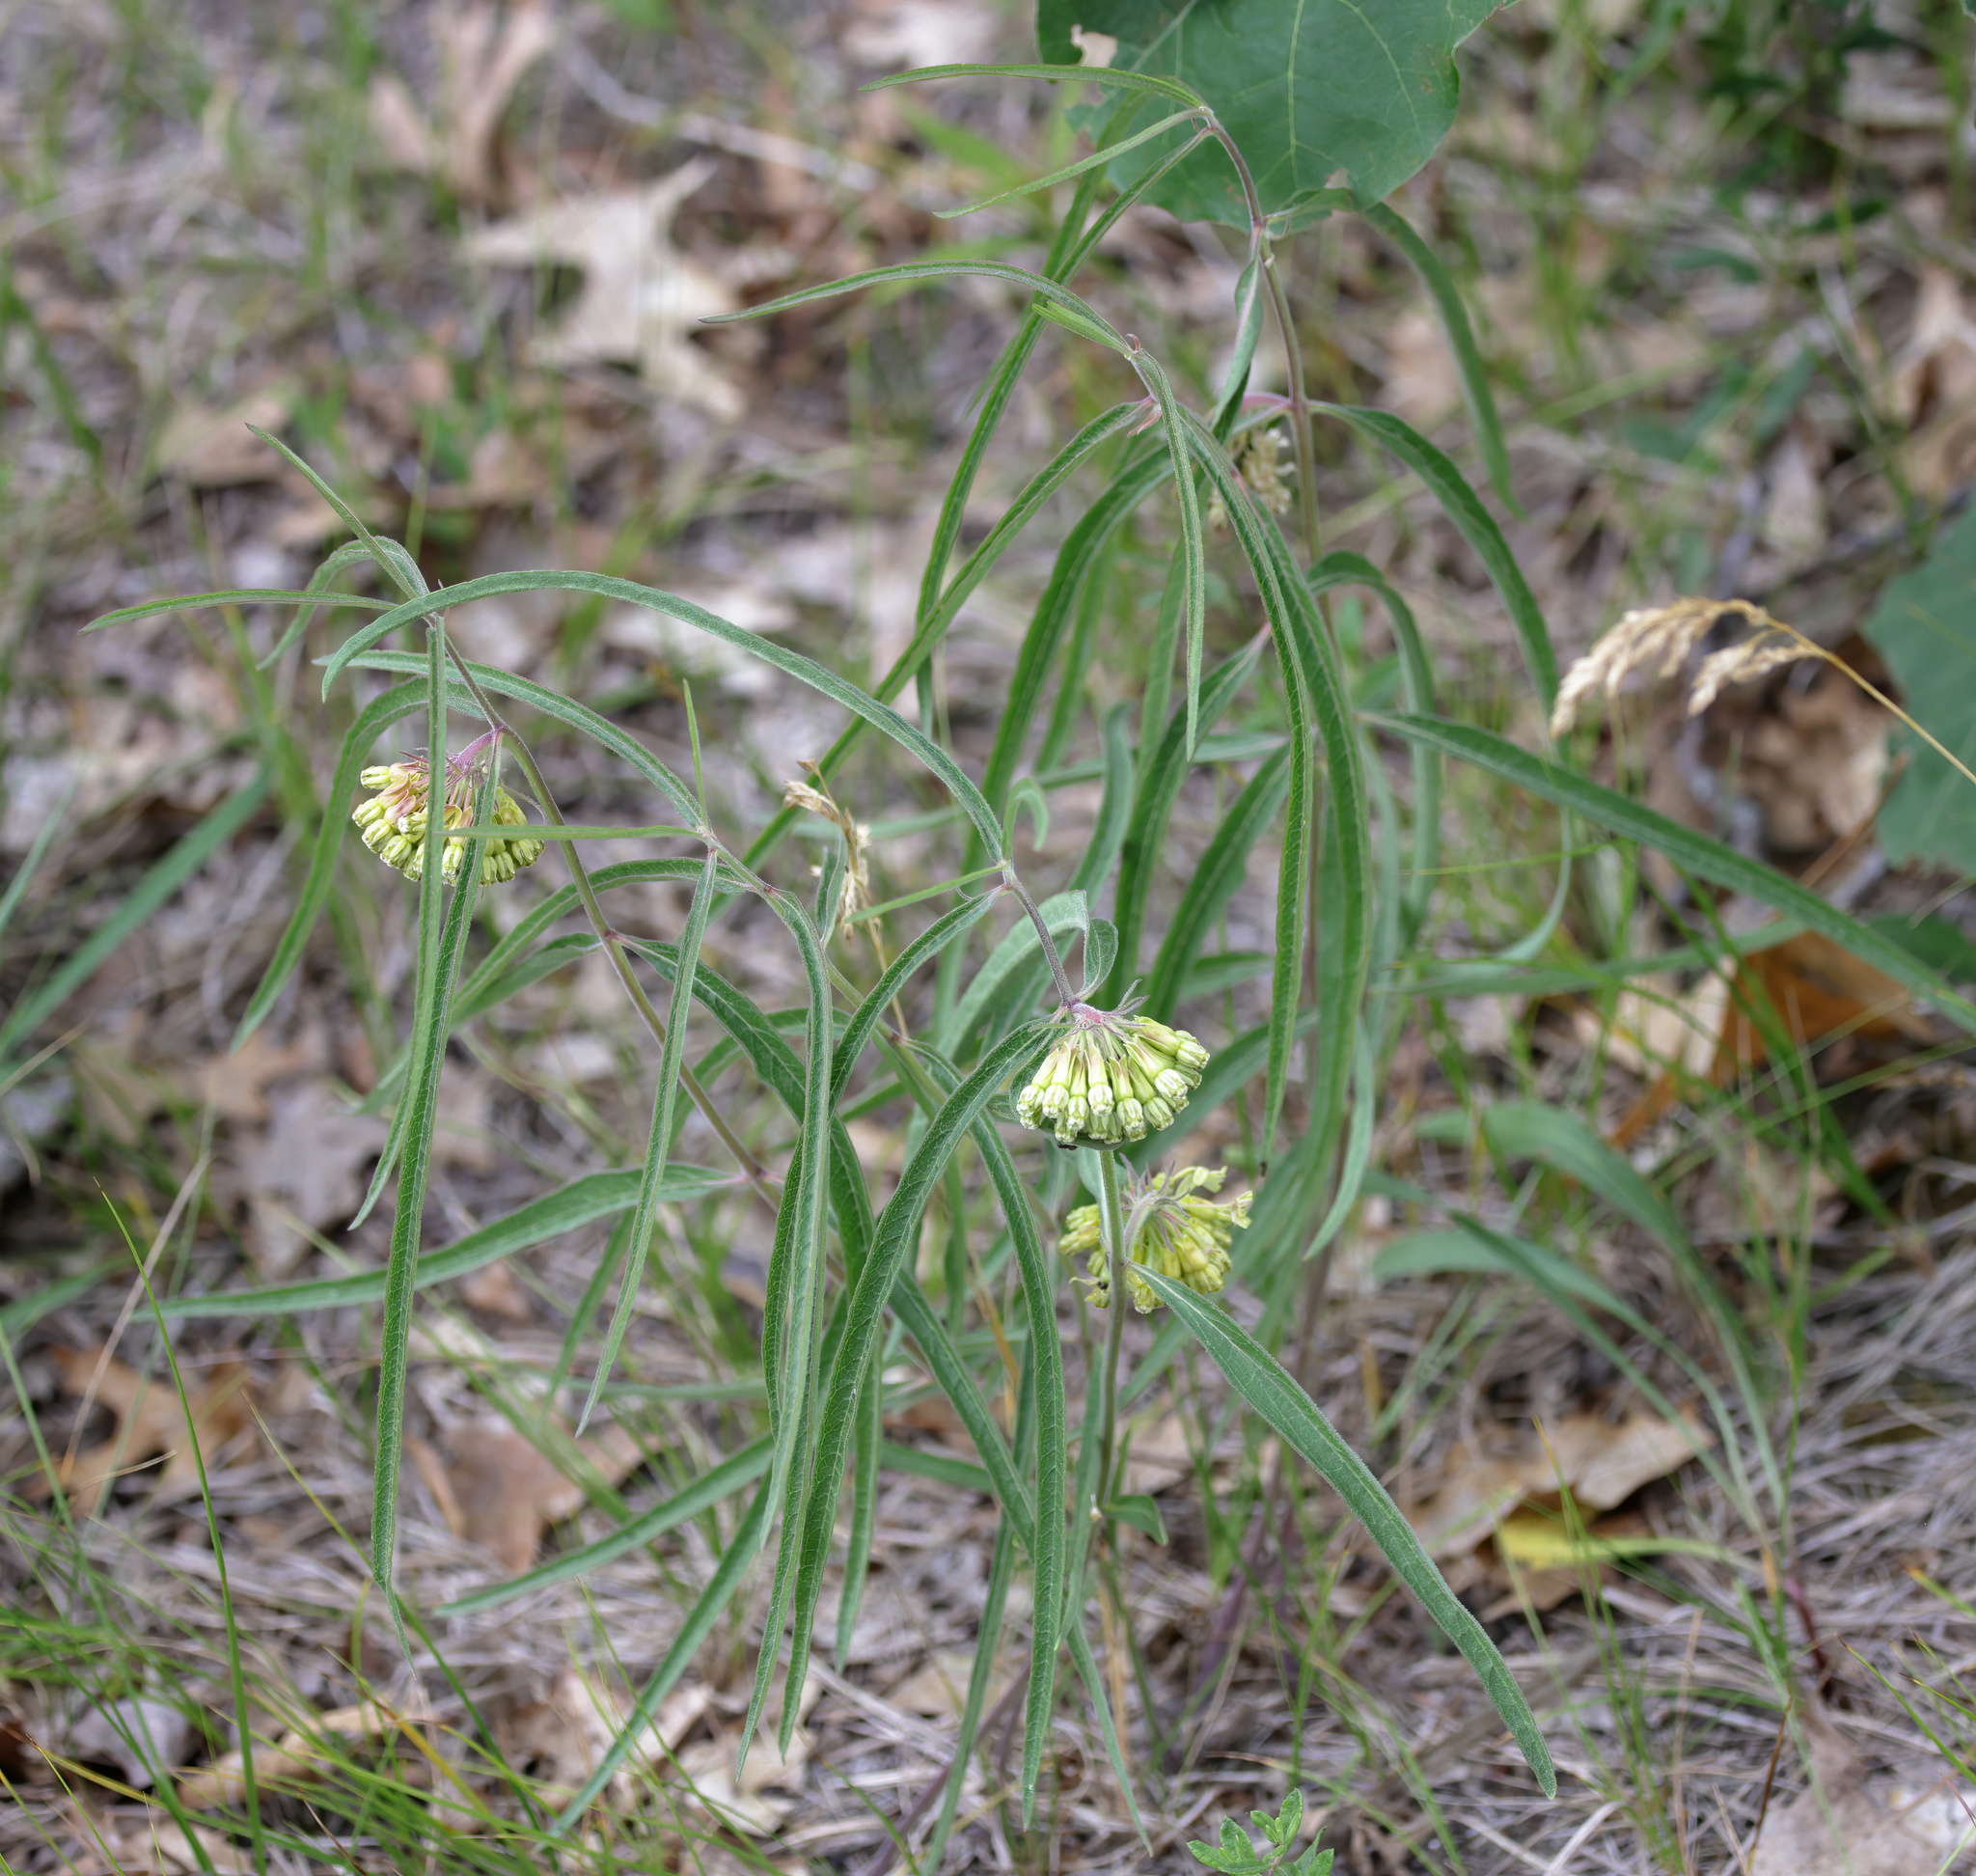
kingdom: Plantae
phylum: Tracheophyta
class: Magnoliopsida
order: Gentianales
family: Apocynaceae
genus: Asclepias
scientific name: Asclepias viridiflora
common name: Green comet milkweed
